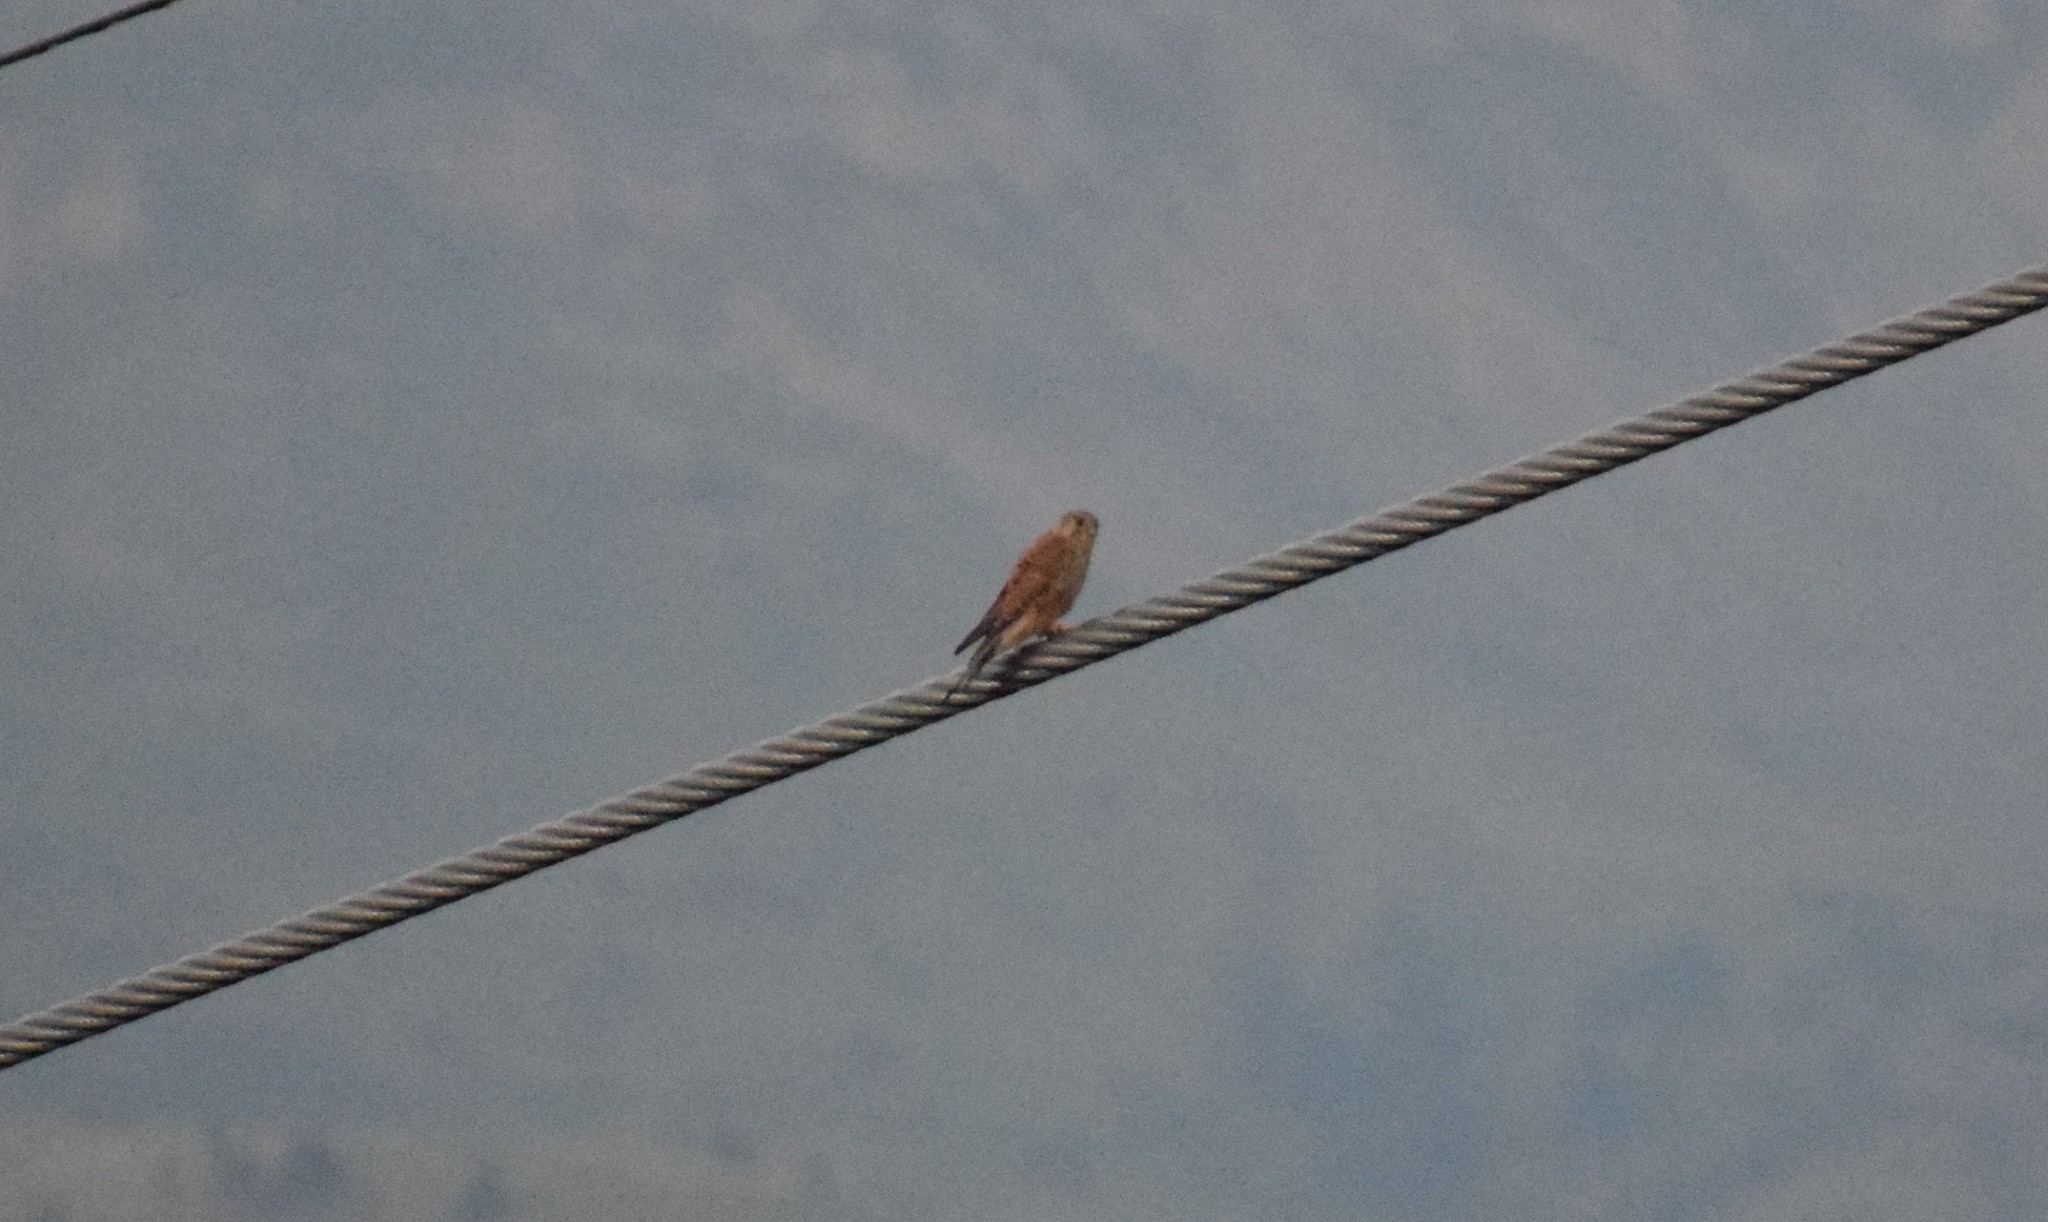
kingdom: Animalia
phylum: Chordata
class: Aves
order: Falconiformes
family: Falconidae
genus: Falco
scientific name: Falco tinnunculus
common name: Common kestrel
